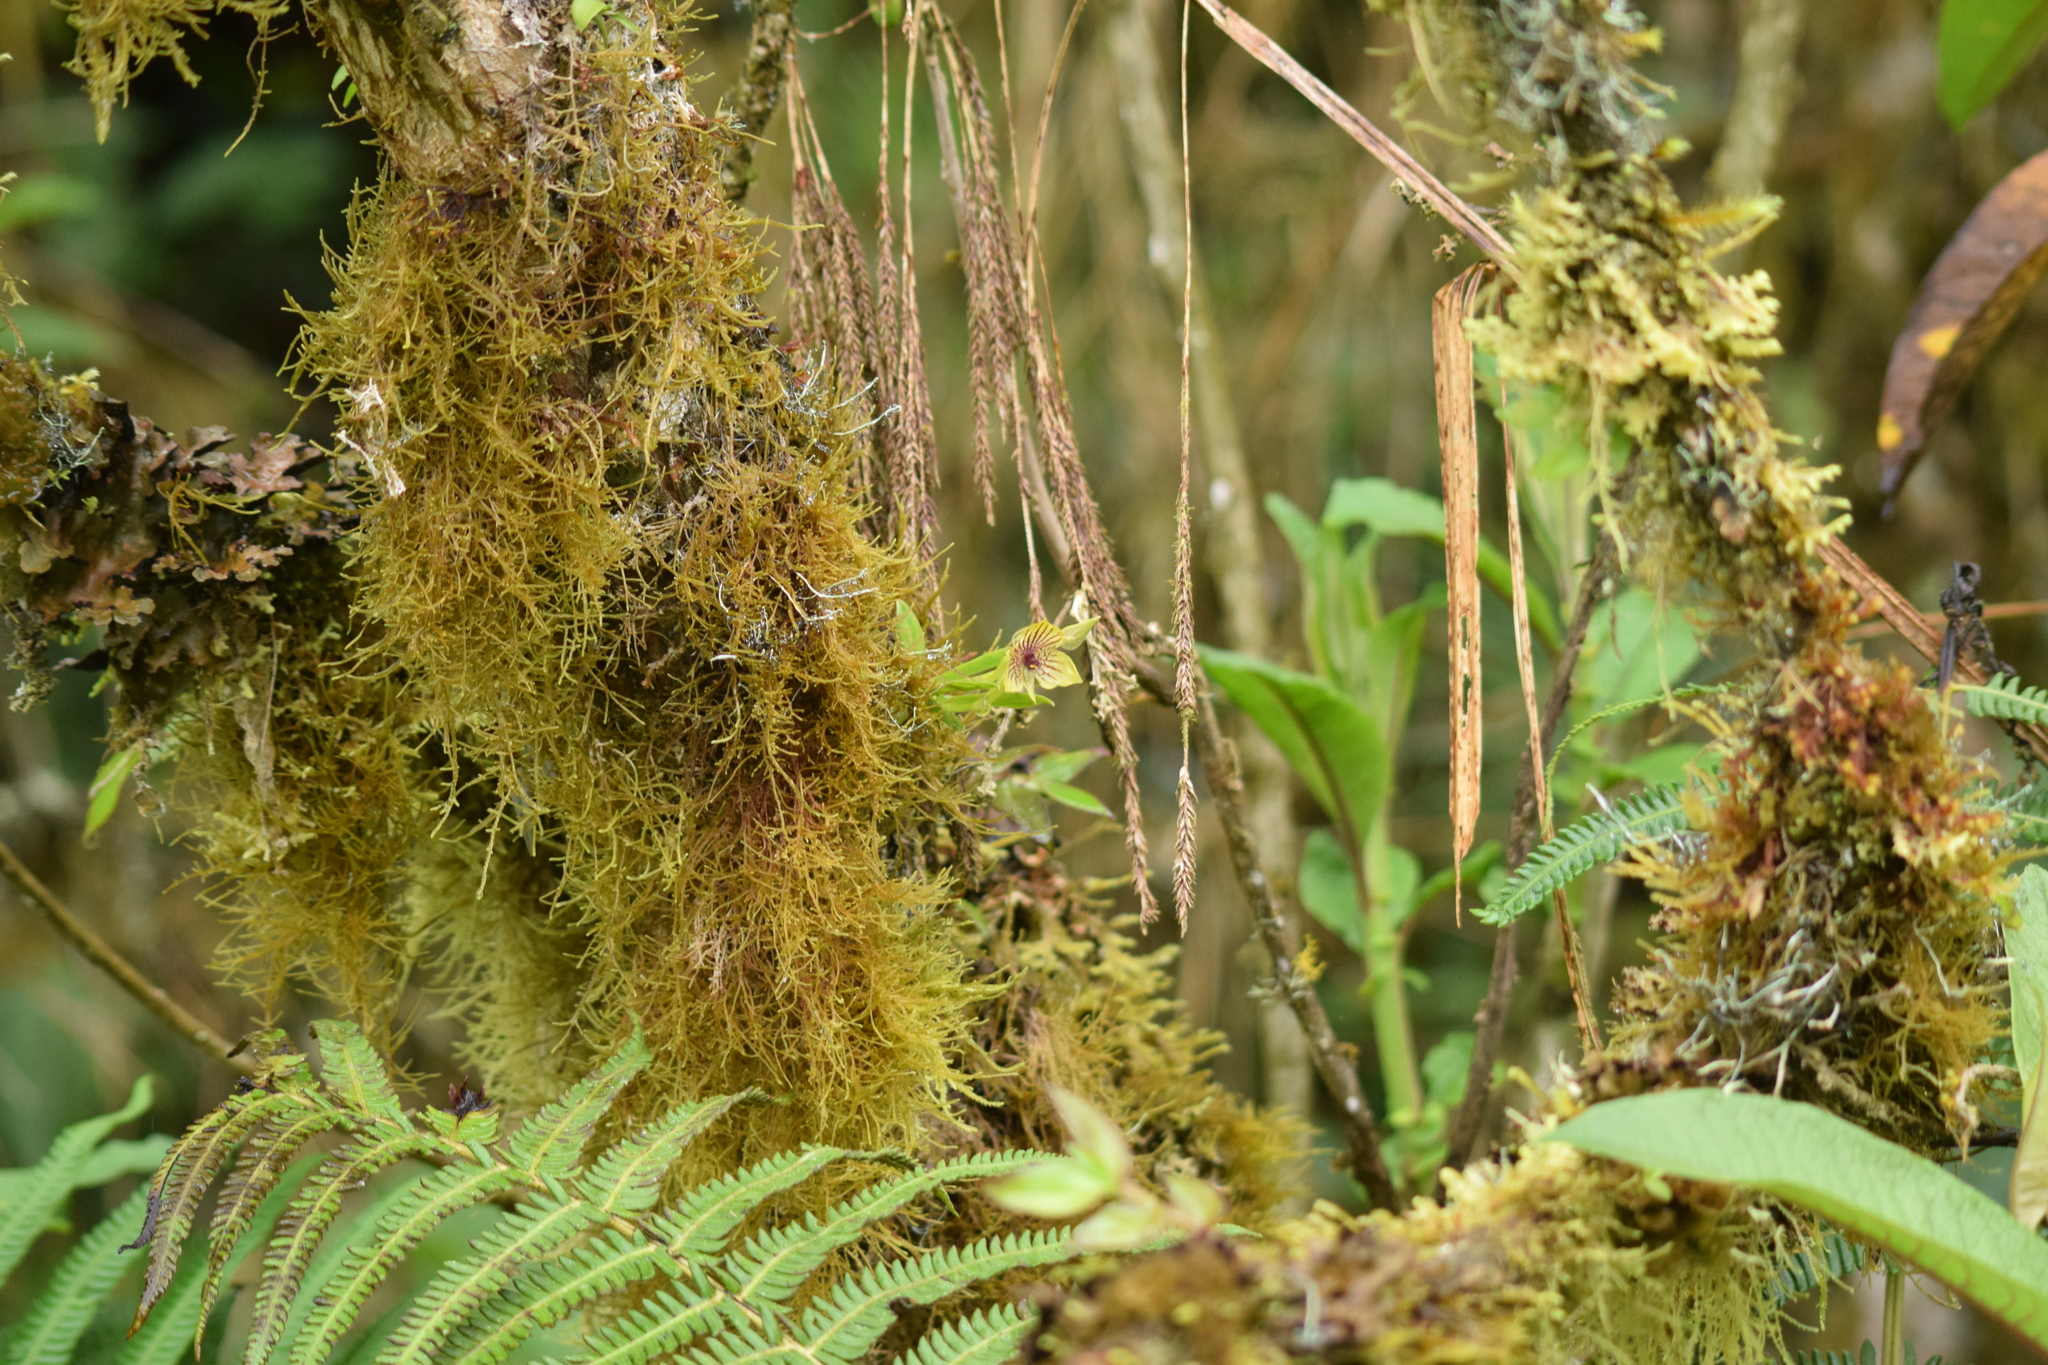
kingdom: Plantae
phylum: Tracheophyta
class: Liliopsida
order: Asparagales
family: Orchidaceae
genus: Telipogon
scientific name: Telipogon nervosus
